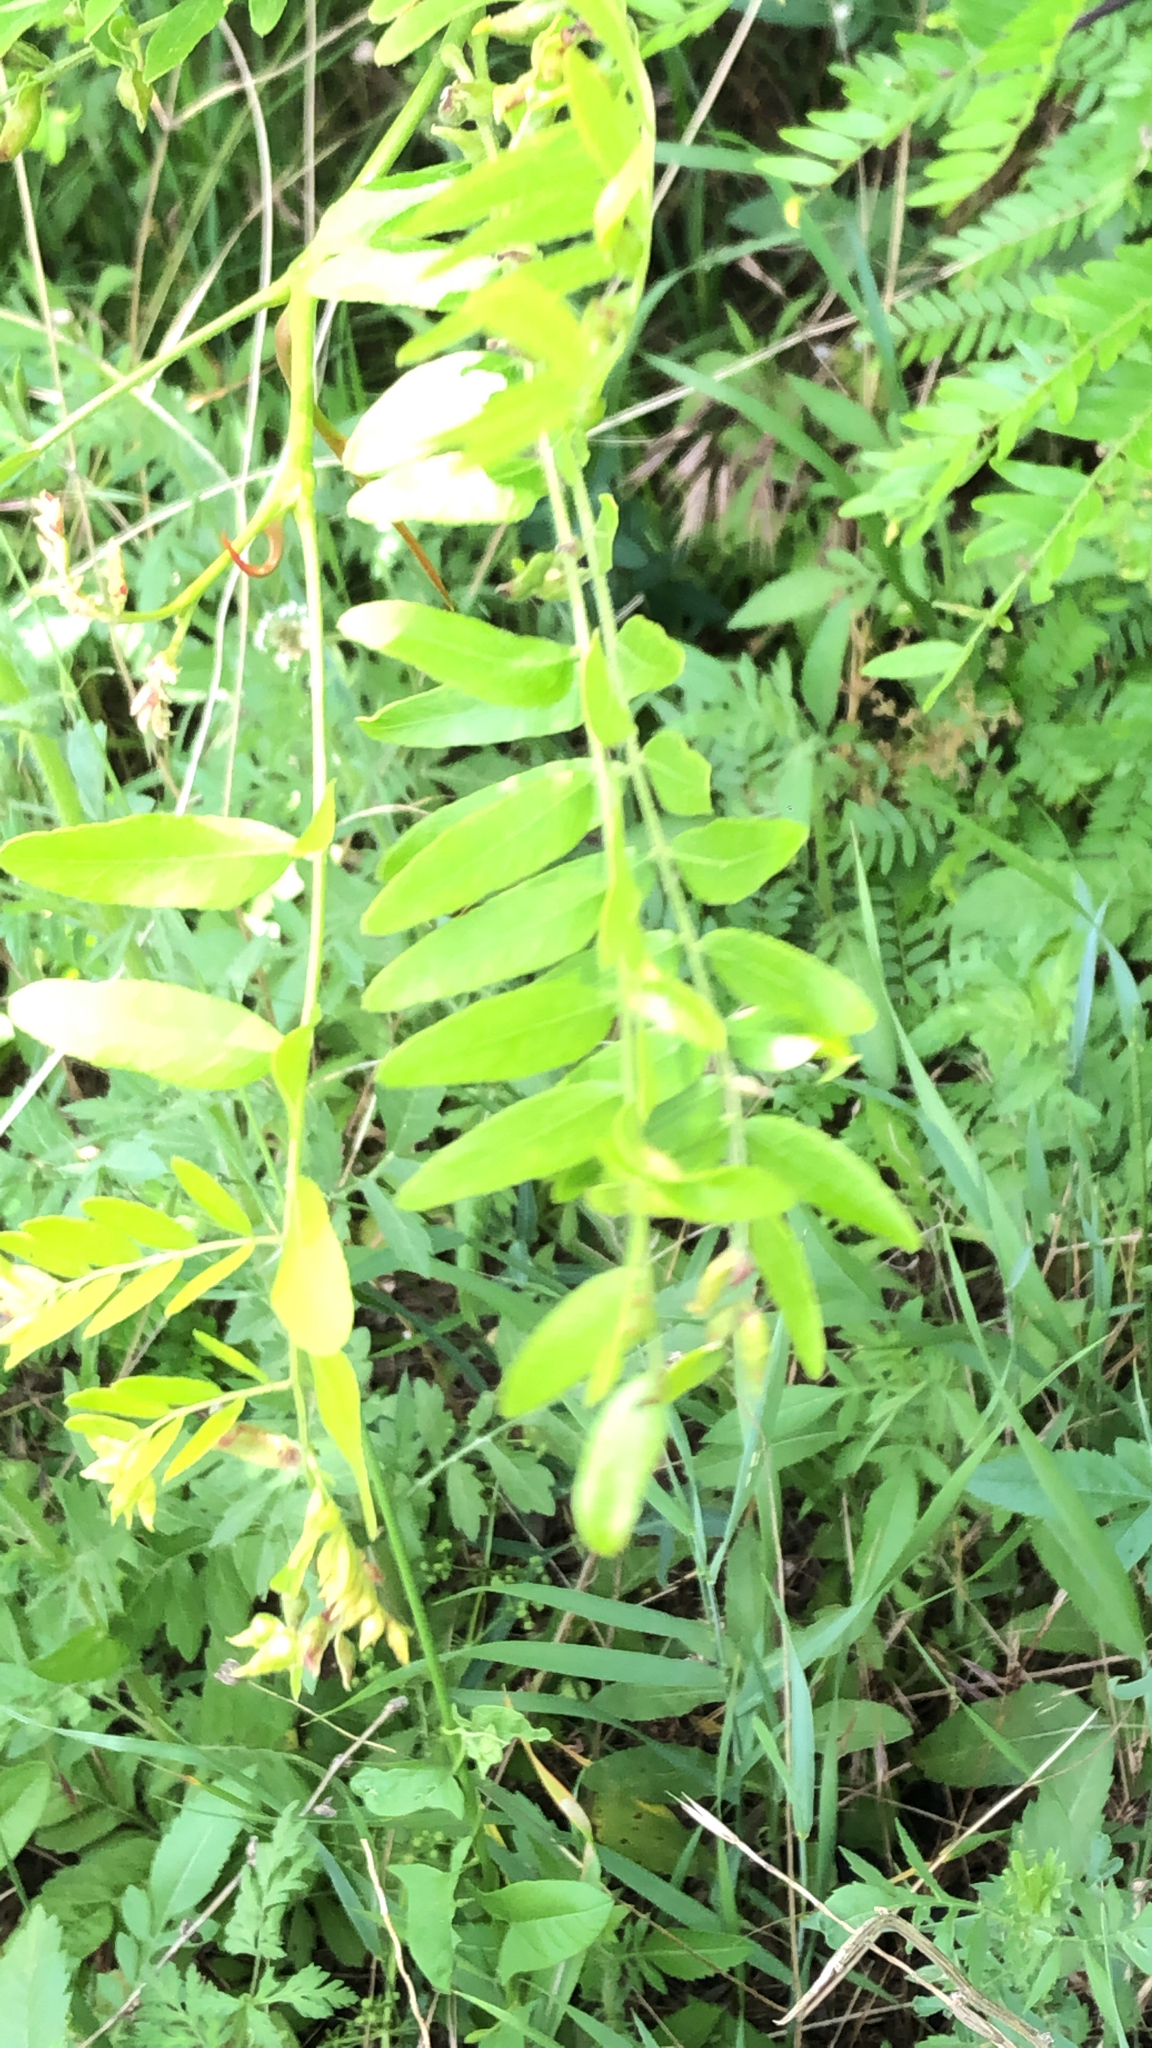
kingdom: Plantae
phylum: Tracheophyta
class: Magnoliopsida
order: Fabales
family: Fabaceae
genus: Gleditsia
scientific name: Gleditsia triacanthos
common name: Common honeylocust
